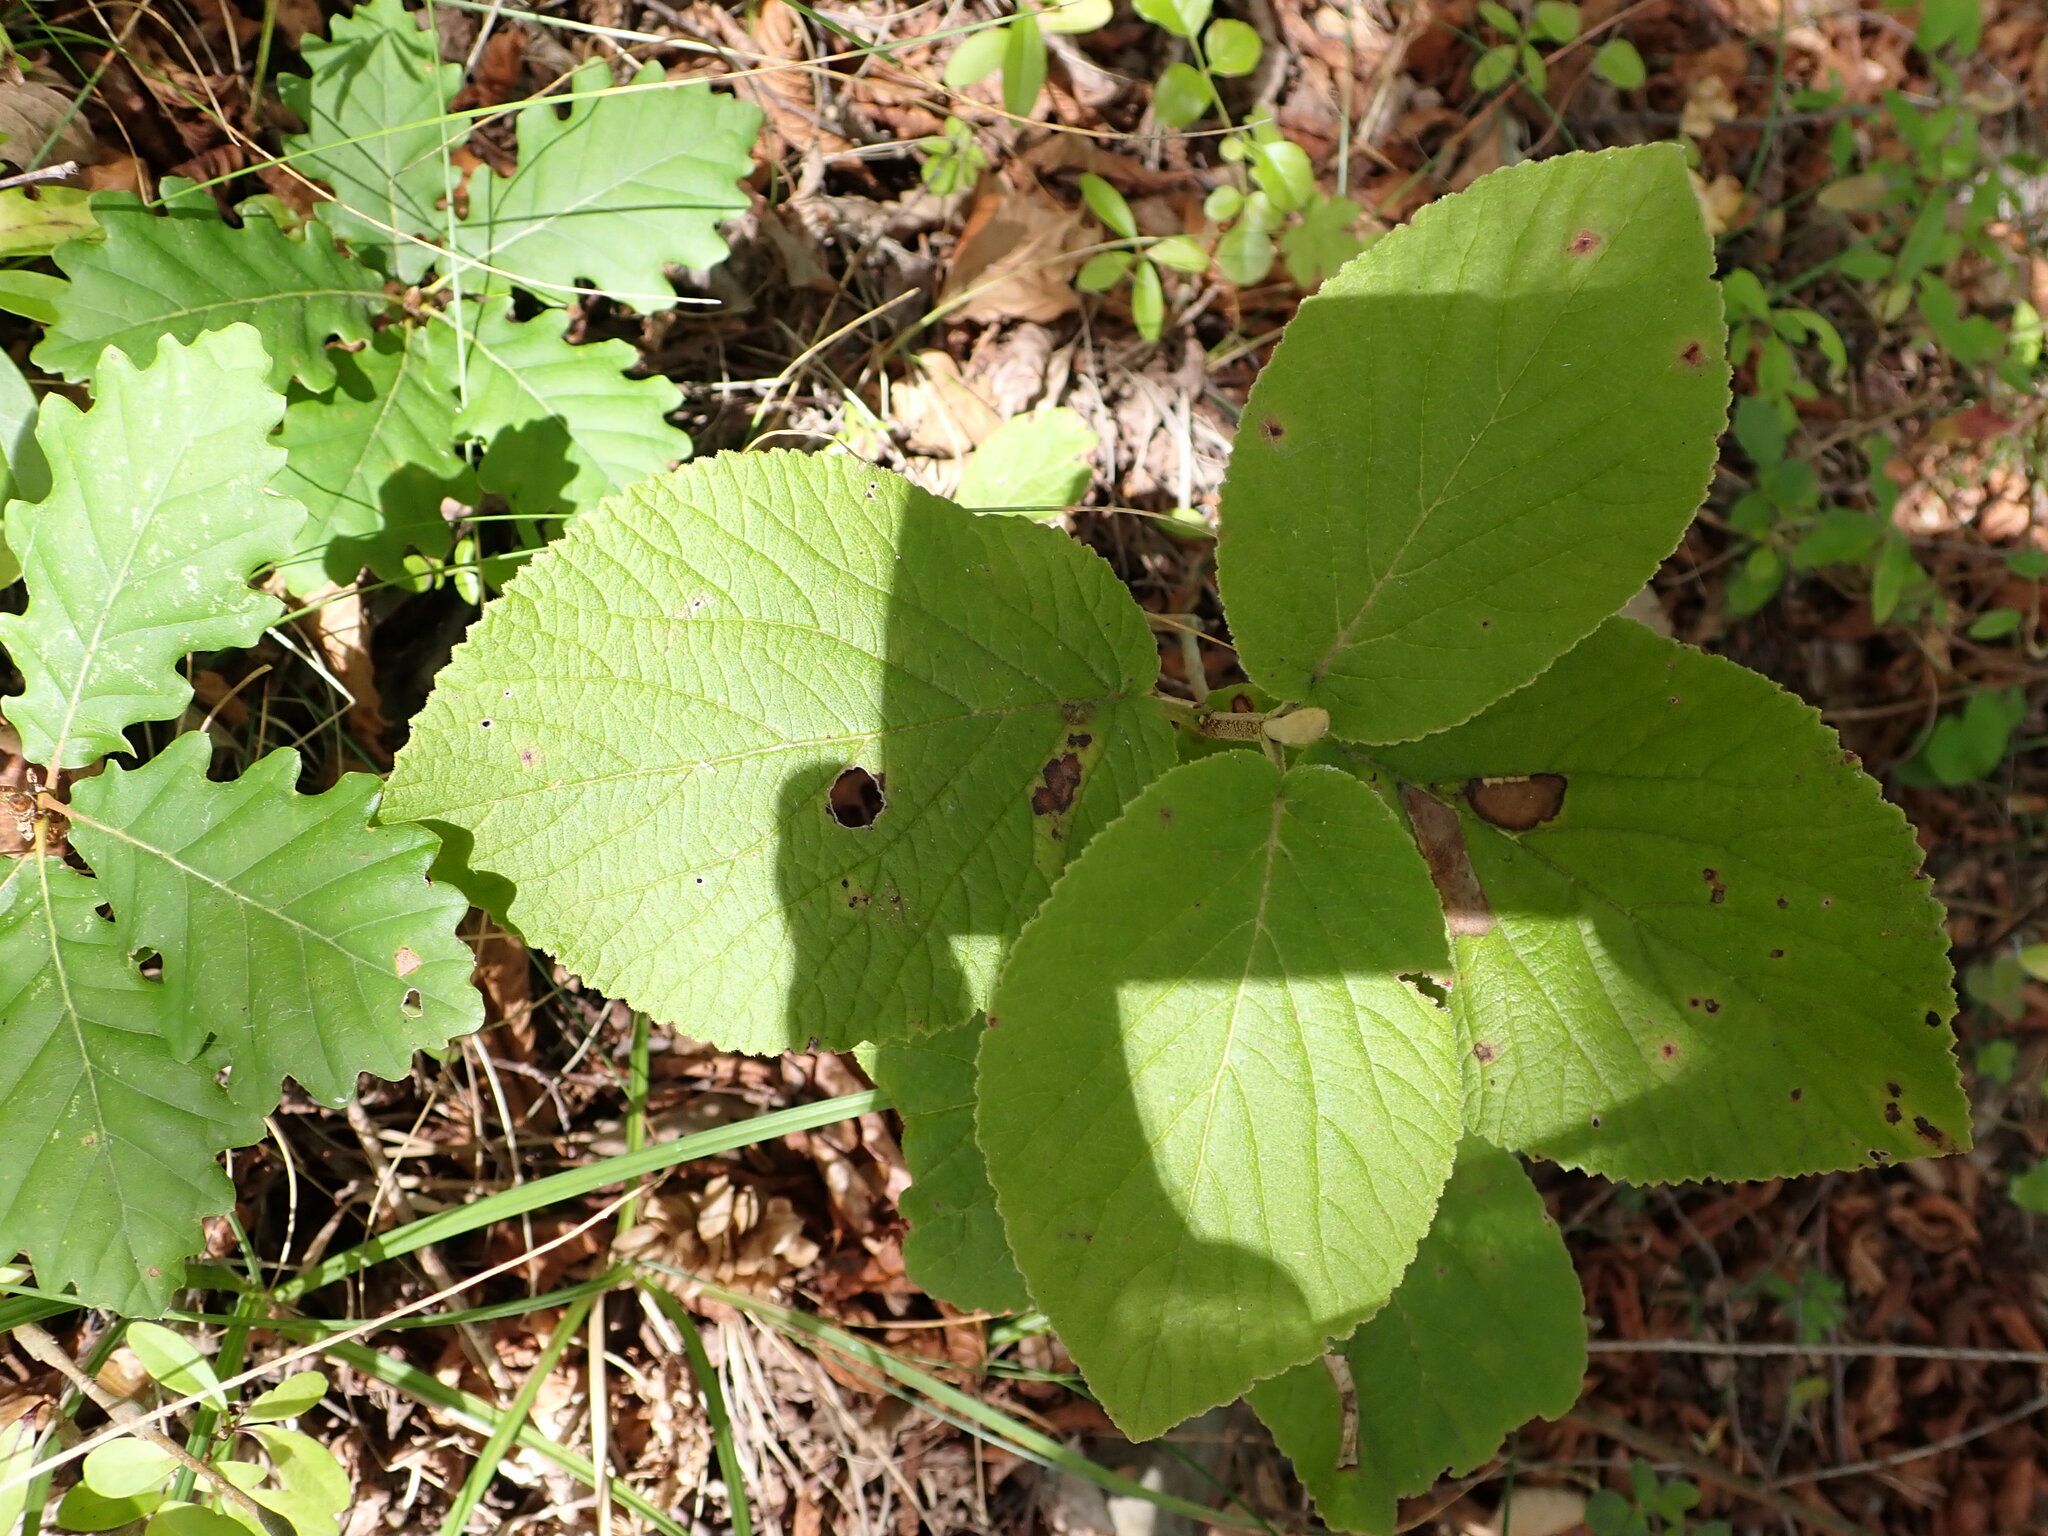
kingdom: Plantae
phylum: Tracheophyta
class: Magnoliopsida
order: Dipsacales
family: Viburnaceae
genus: Viburnum
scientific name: Viburnum lantana
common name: Wayfaring tree
